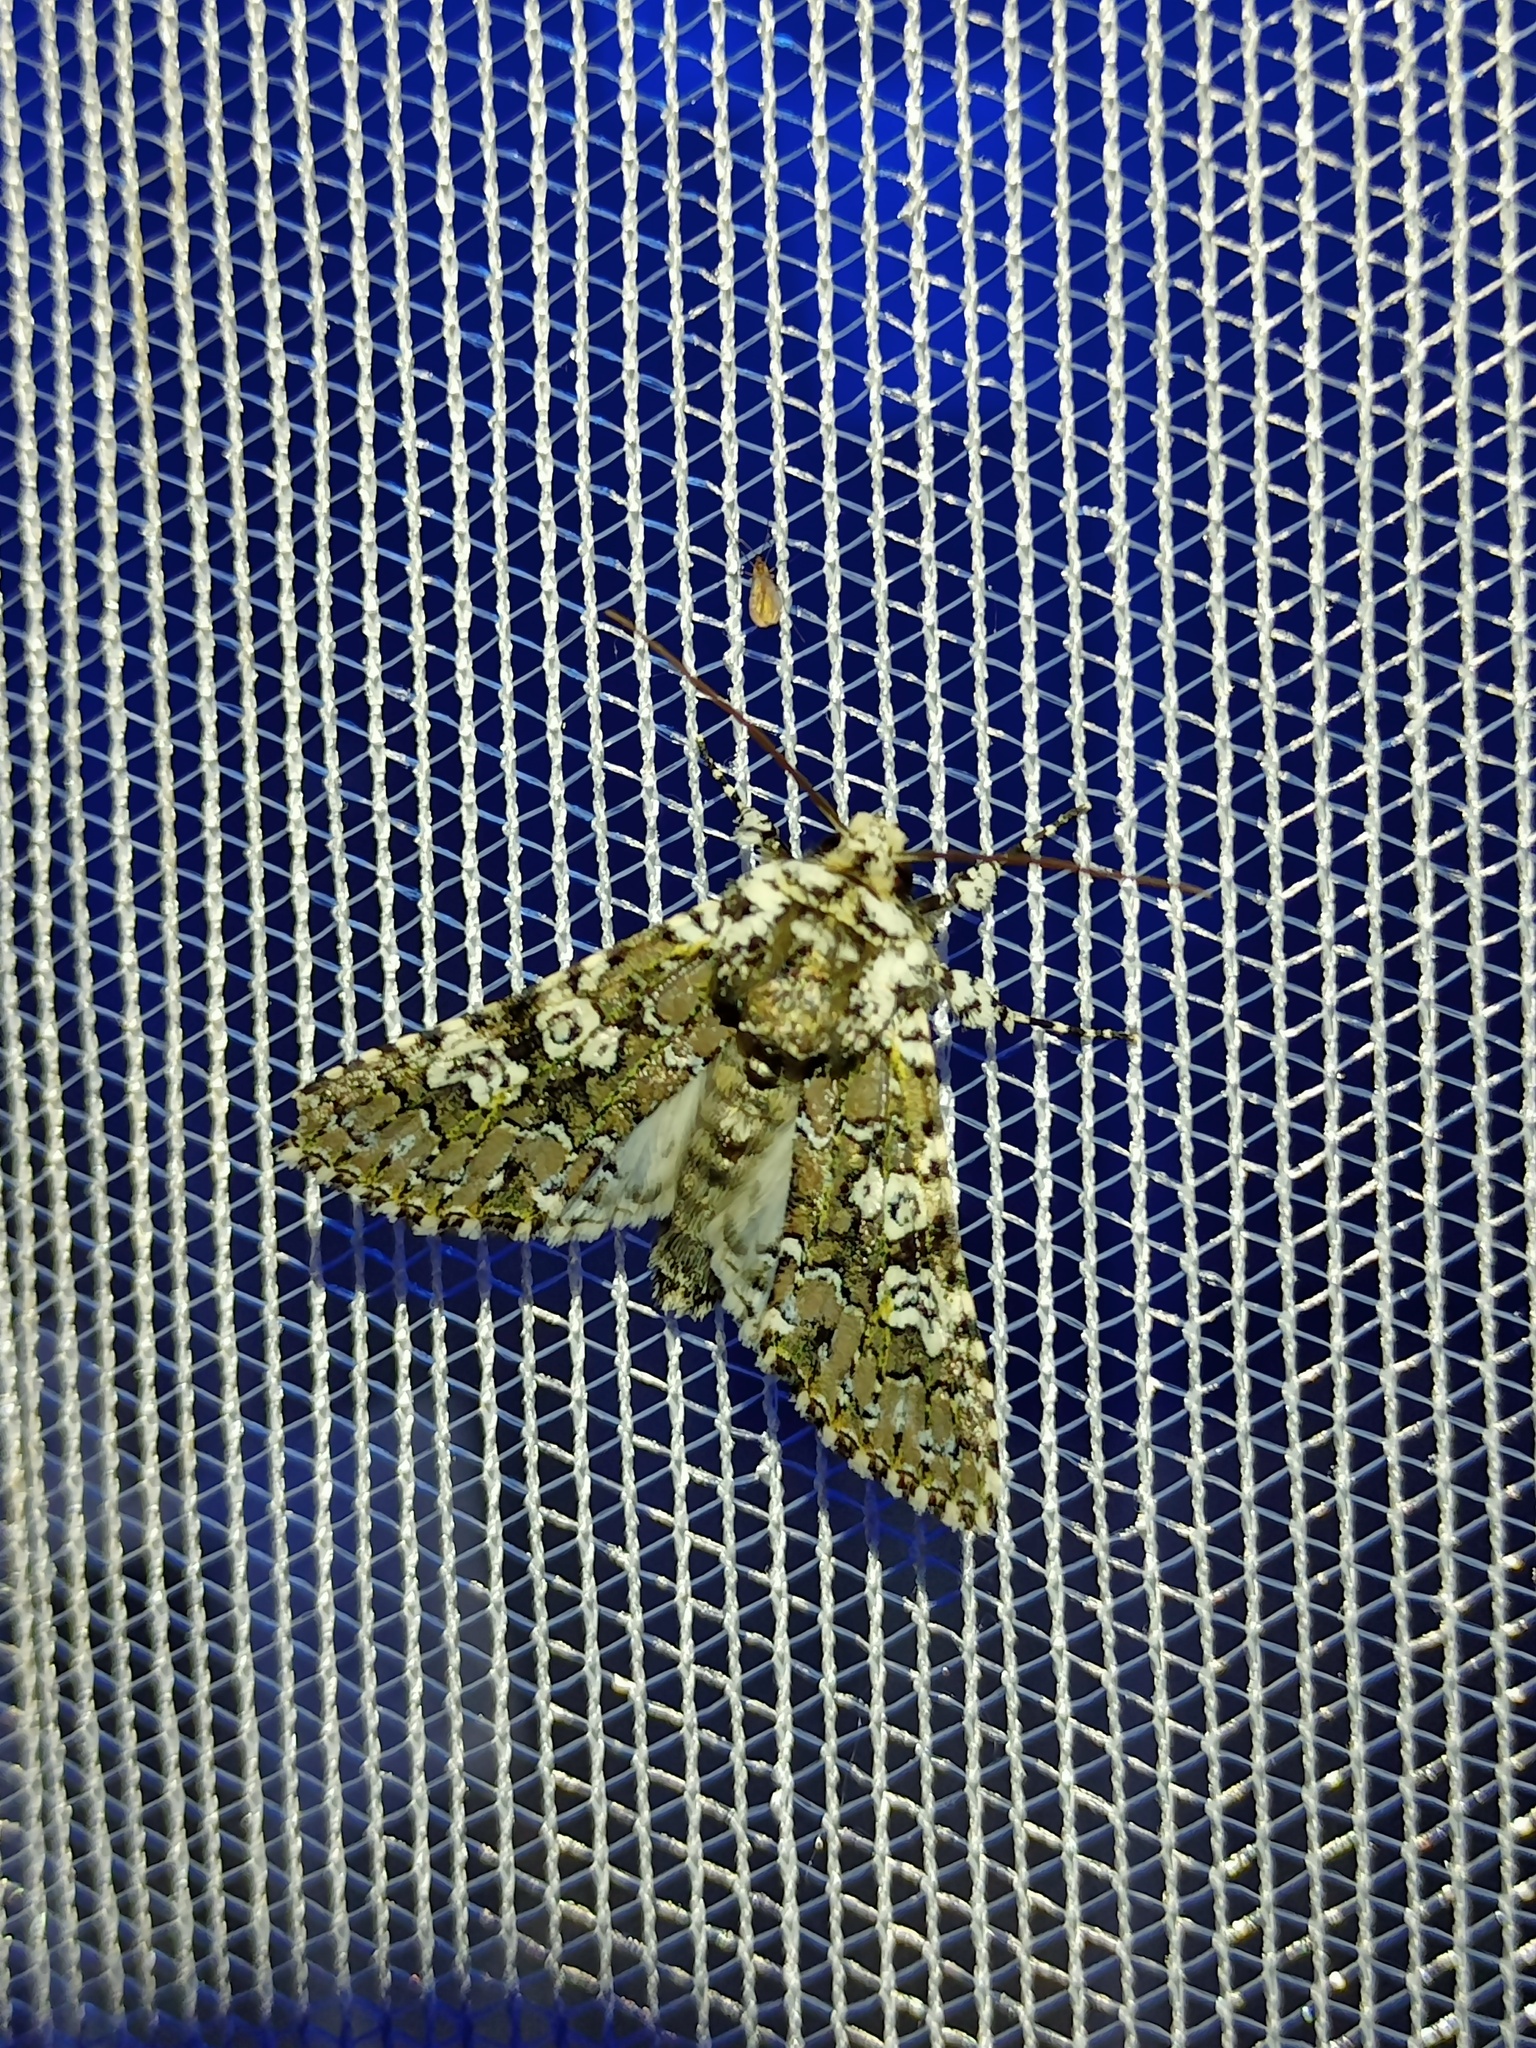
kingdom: Animalia
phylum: Arthropoda
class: Insecta
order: Lepidoptera
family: Noctuidae
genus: Lamprosticta
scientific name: Lamprosticta culta
